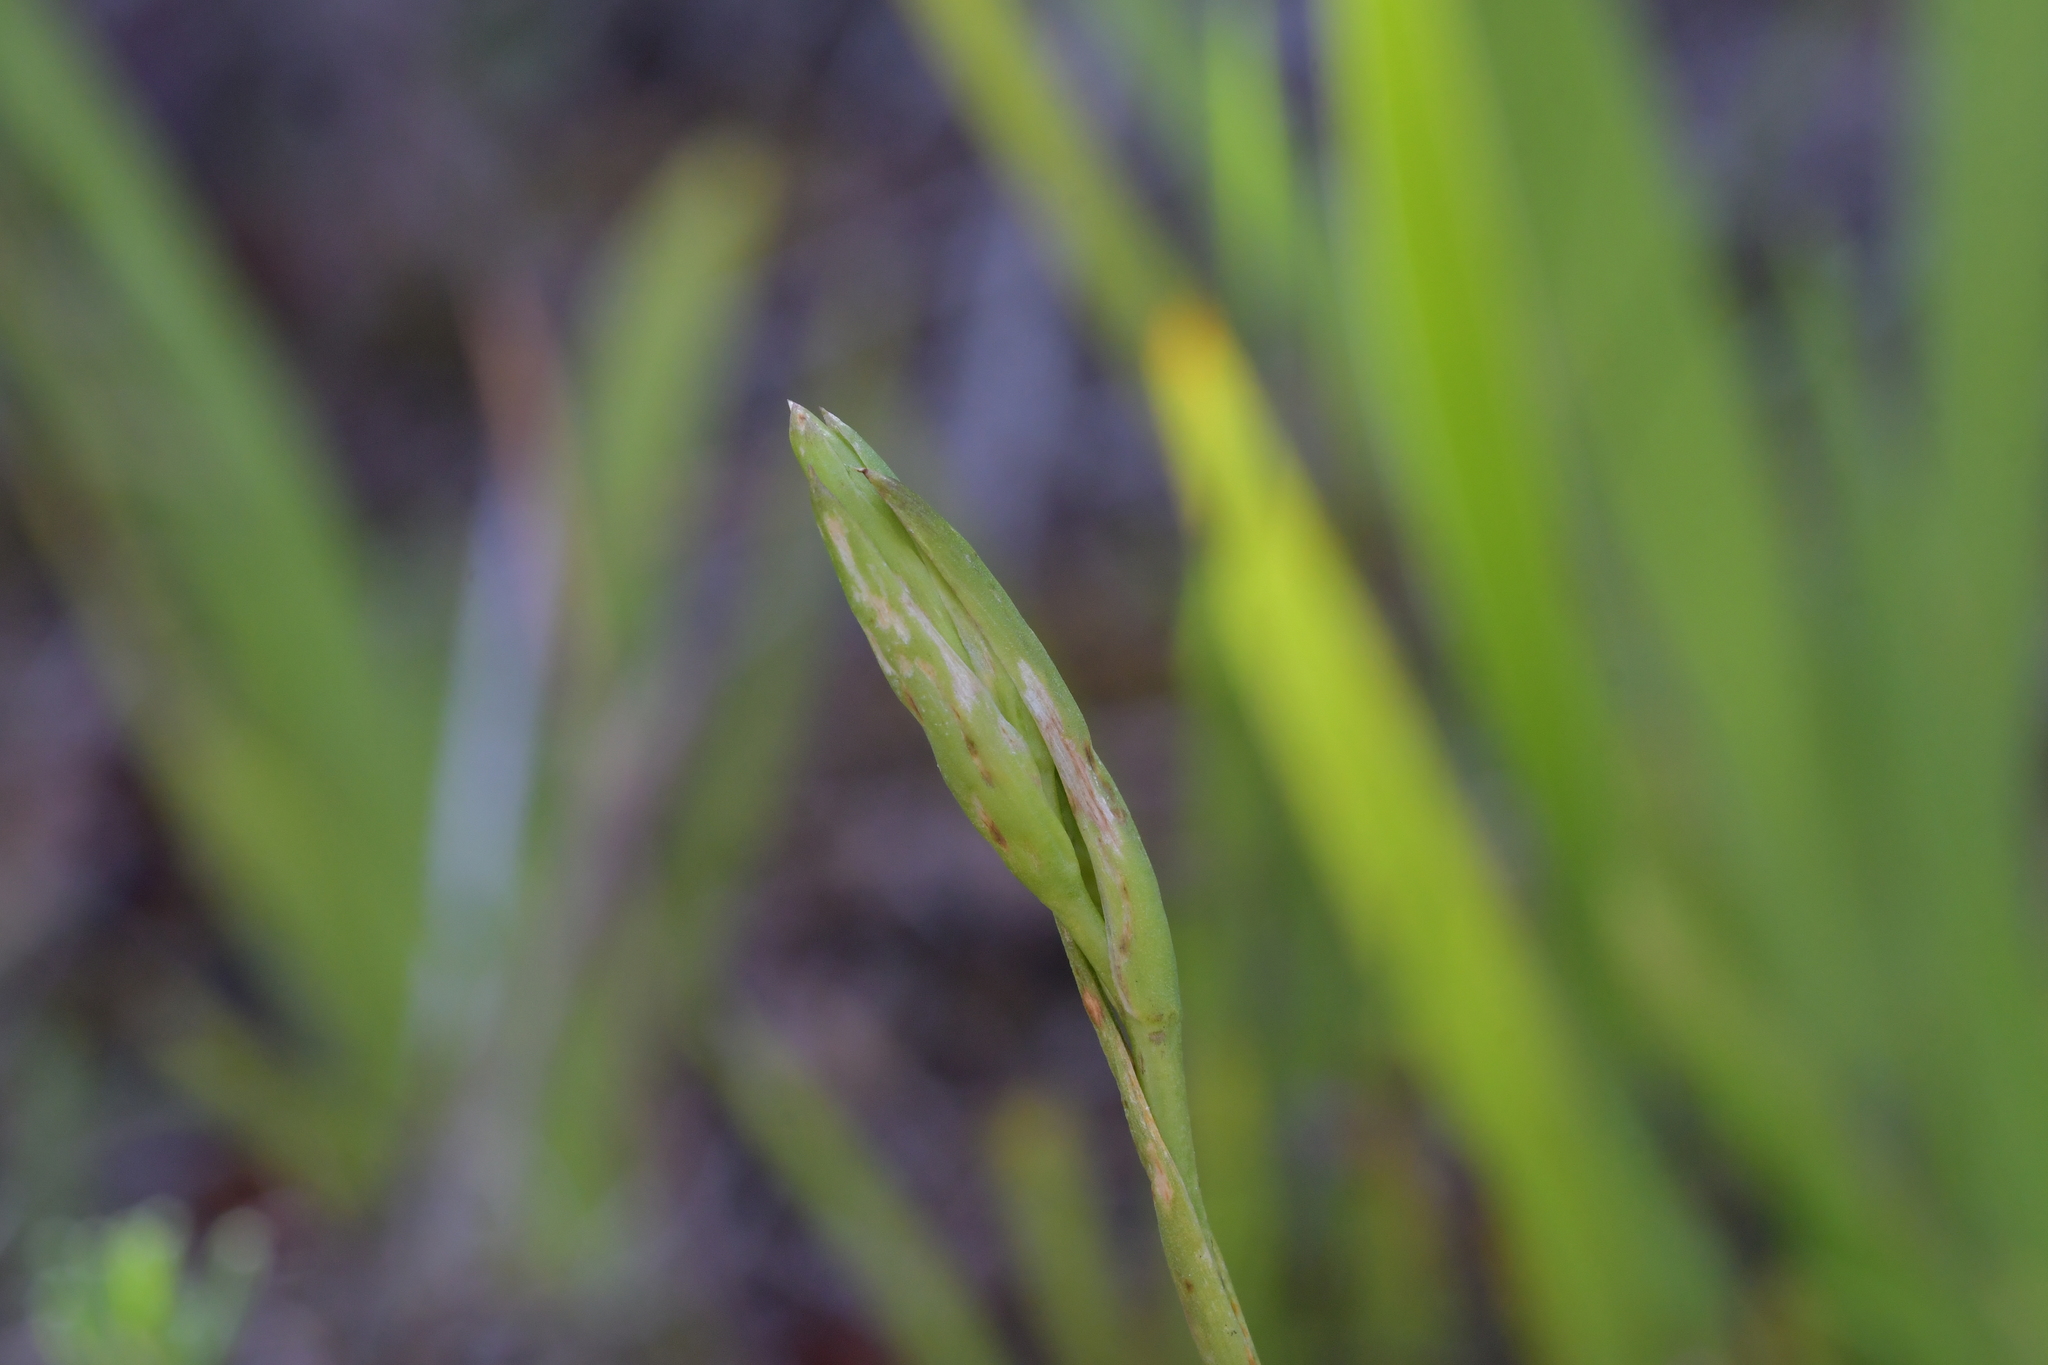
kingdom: Plantae
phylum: Tracheophyta
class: Liliopsida
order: Asparagales
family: Orchidaceae
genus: Orthoceras
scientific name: Orthoceras novae-zeelandiae
